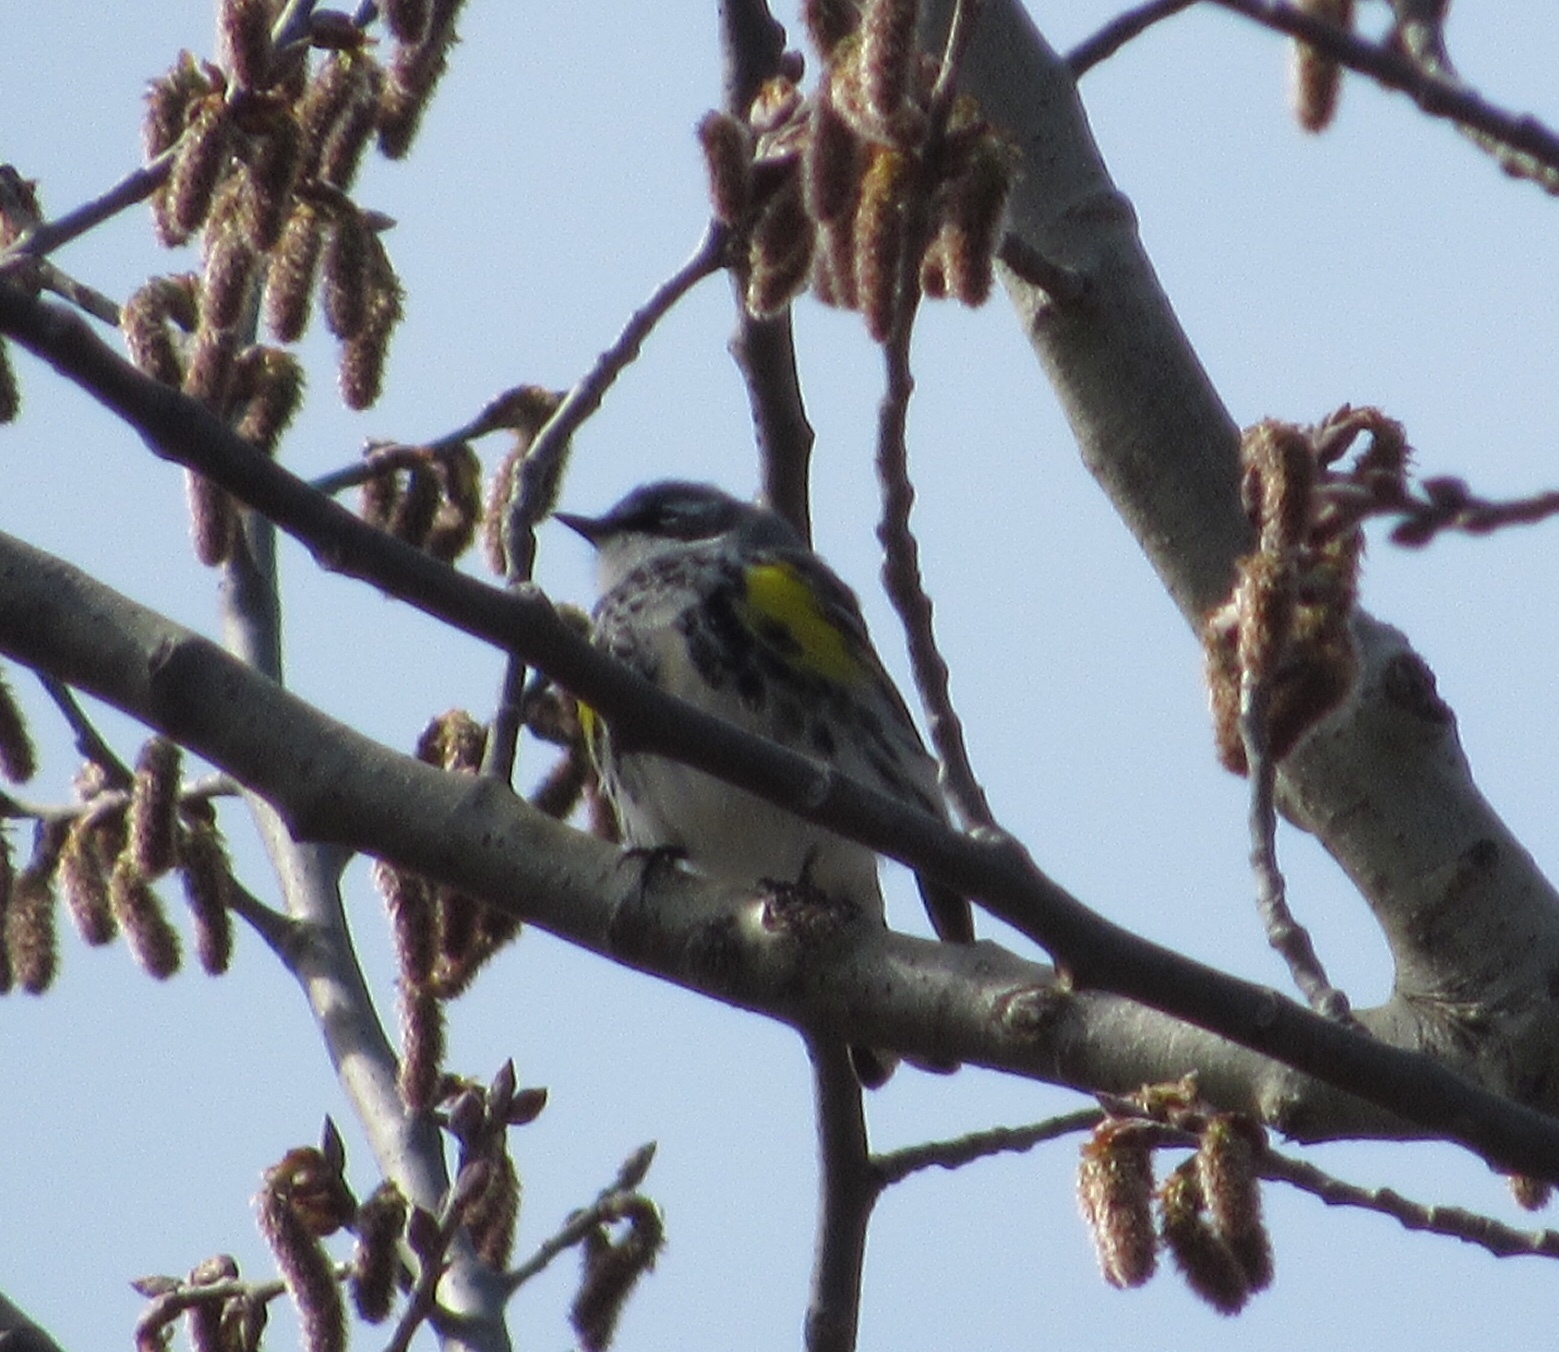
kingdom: Animalia
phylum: Chordata
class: Aves
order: Passeriformes
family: Parulidae
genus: Setophaga
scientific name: Setophaga coronata
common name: Myrtle warbler
